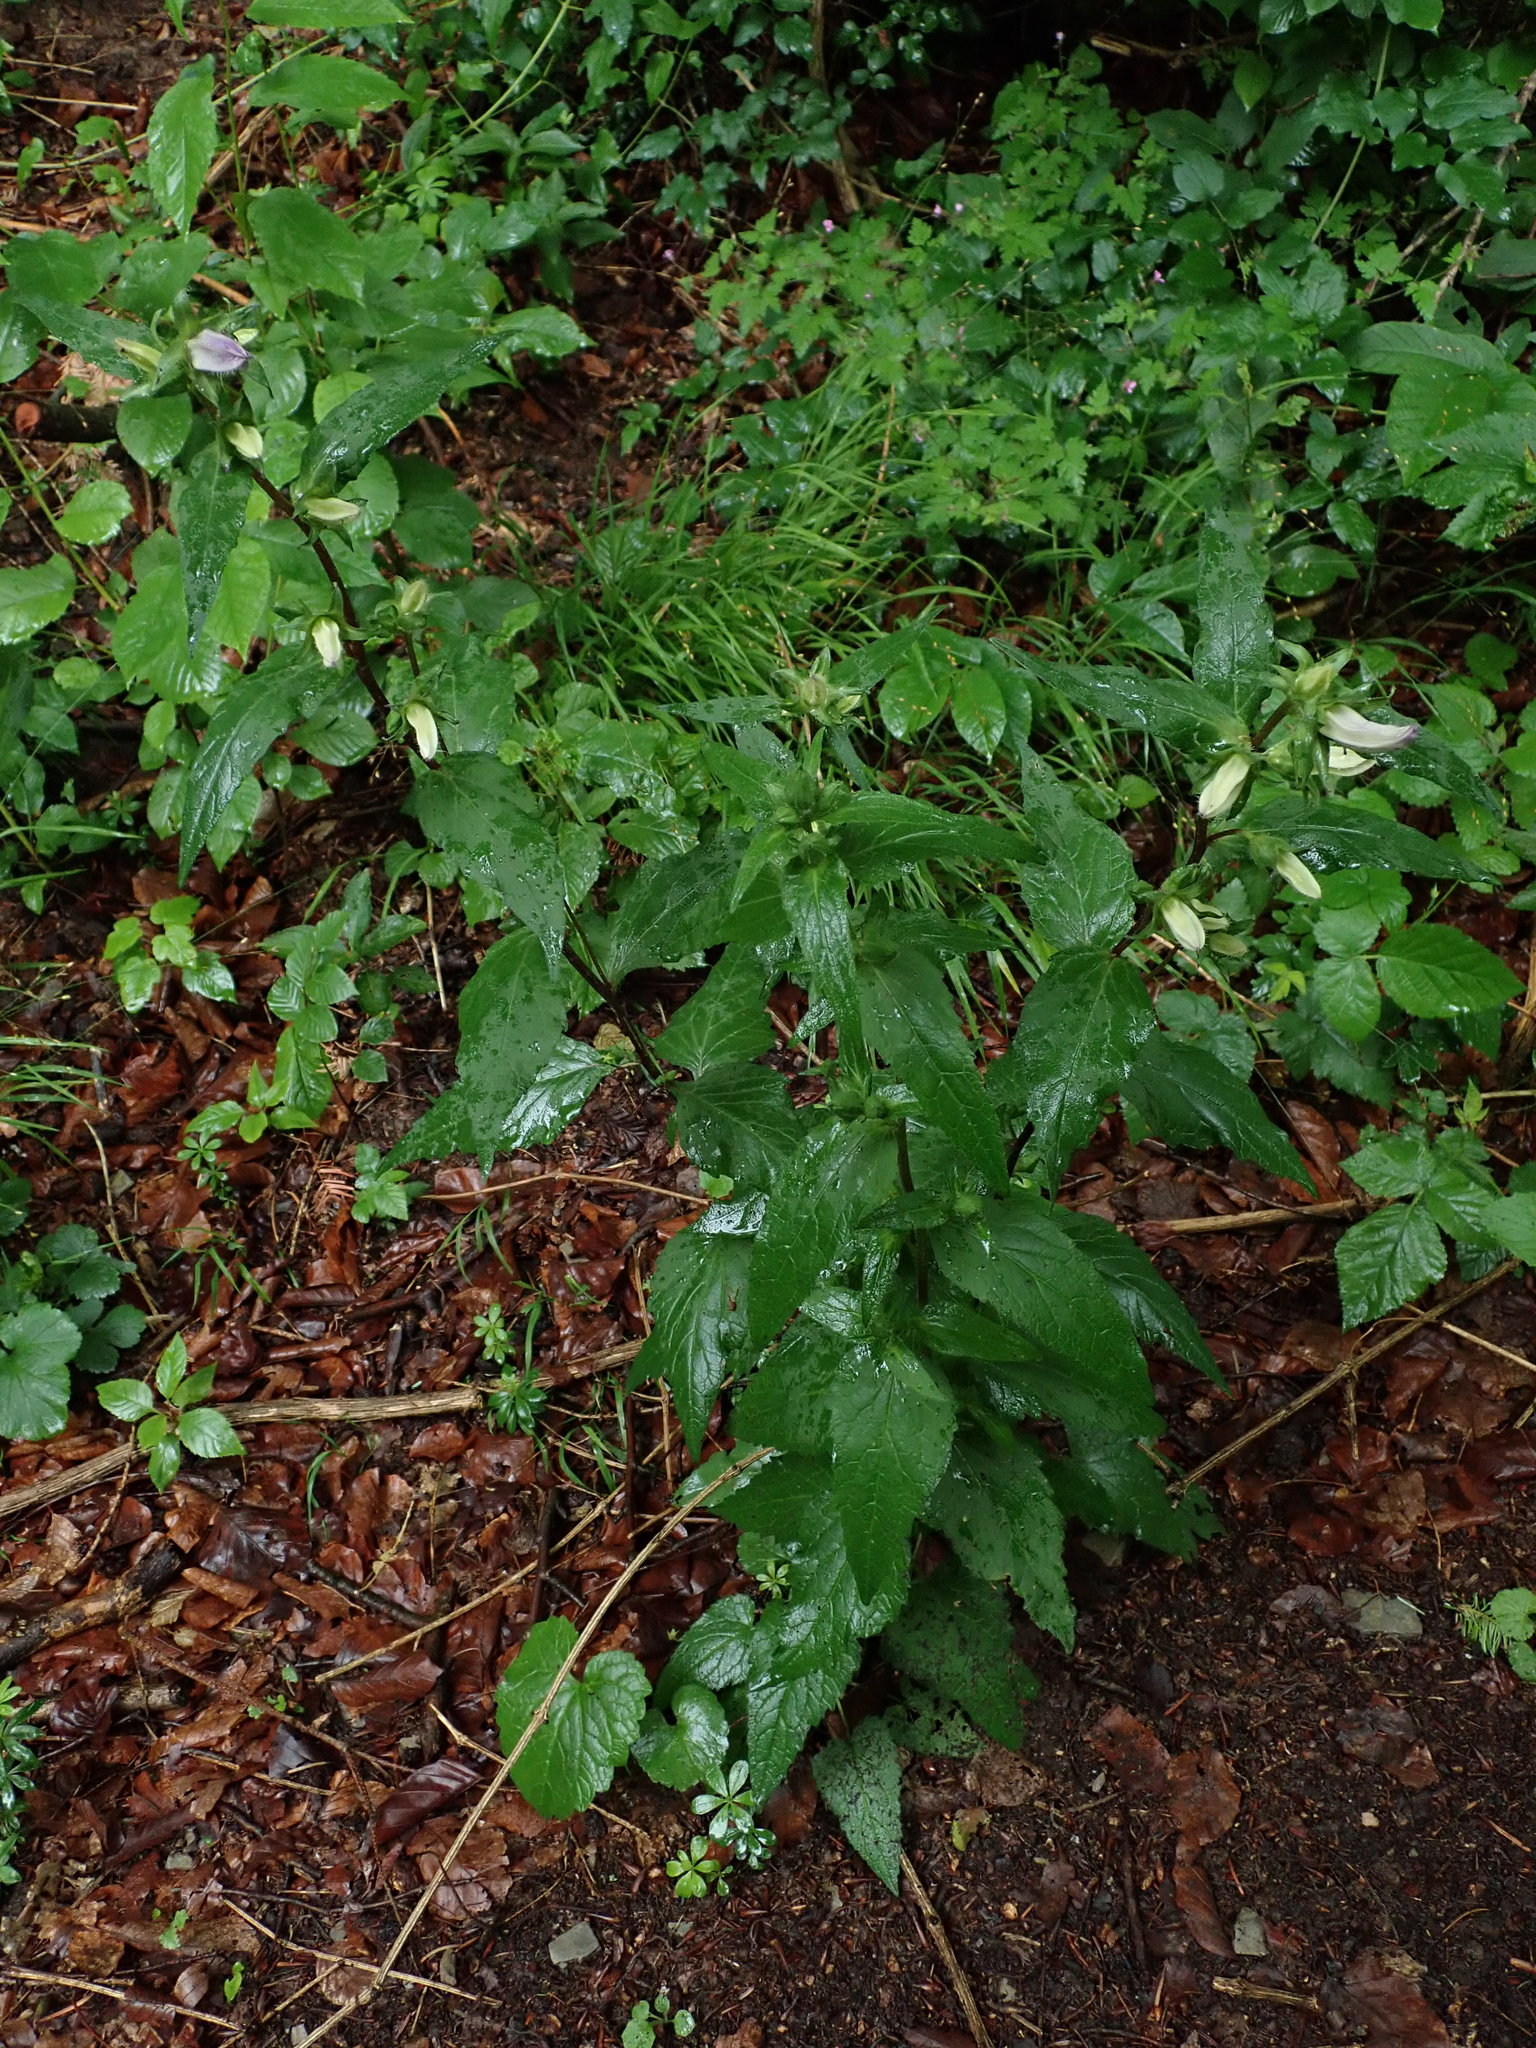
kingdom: Plantae
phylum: Tracheophyta
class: Magnoliopsida
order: Asterales
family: Campanulaceae
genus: Campanula
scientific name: Campanula trachelium
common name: Nettle-leaved bellflower
